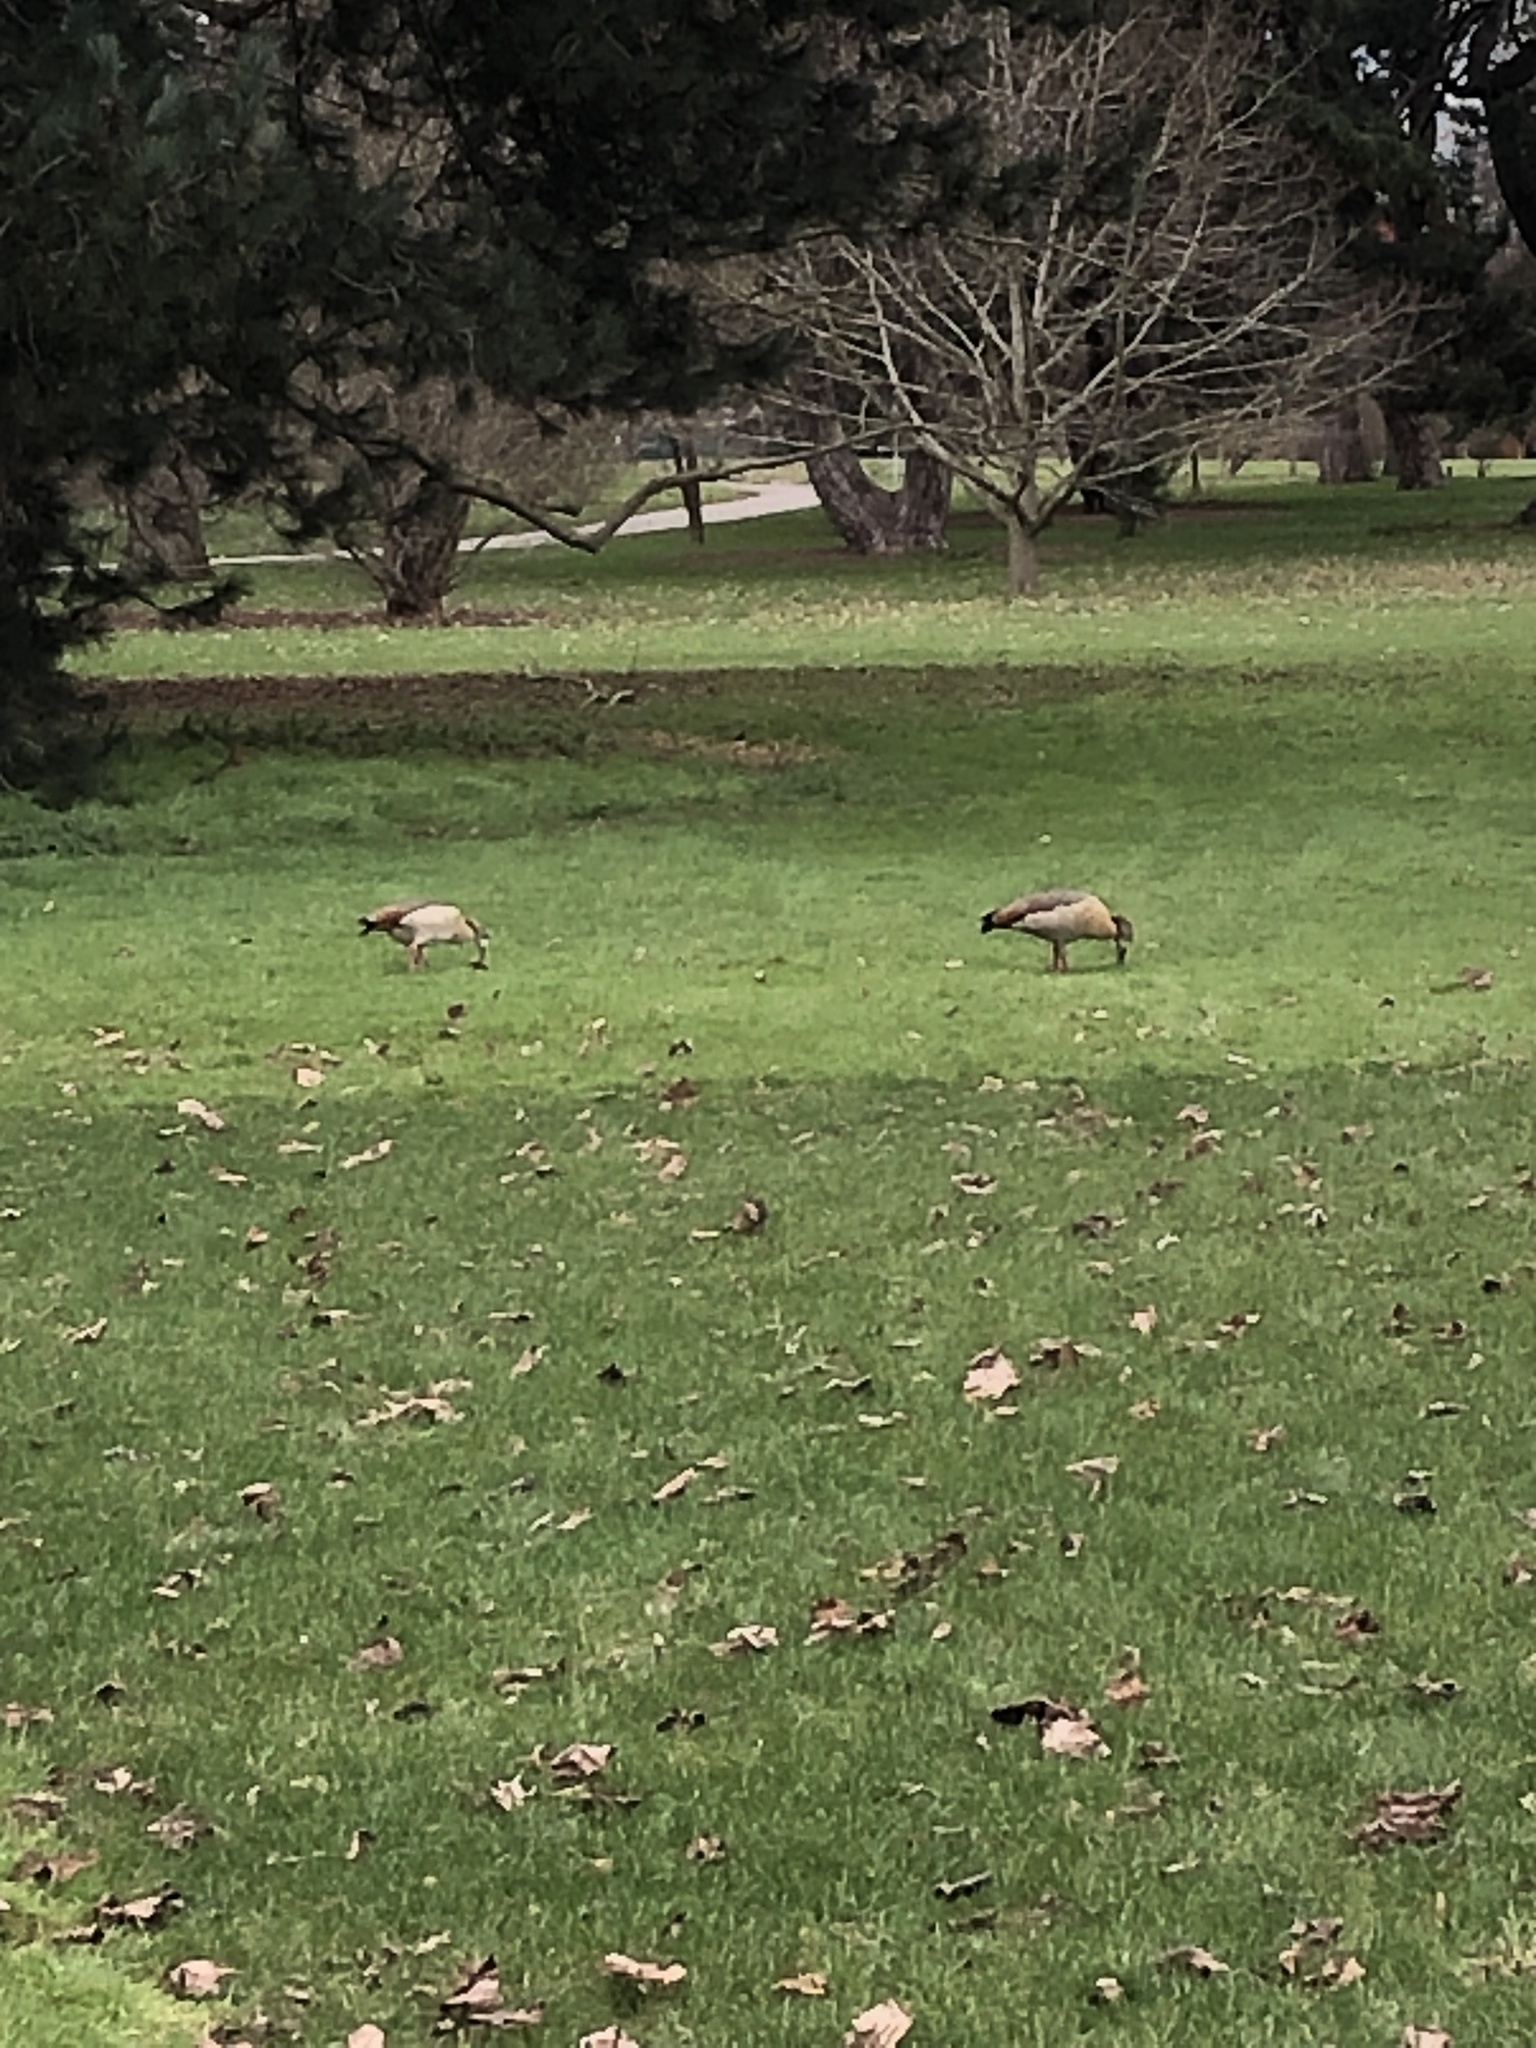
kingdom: Animalia
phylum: Chordata
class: Aves
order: Anseriformes
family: Anatidae
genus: Alopochen
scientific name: Alopochen aegyptiaca
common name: Egyptian goose
